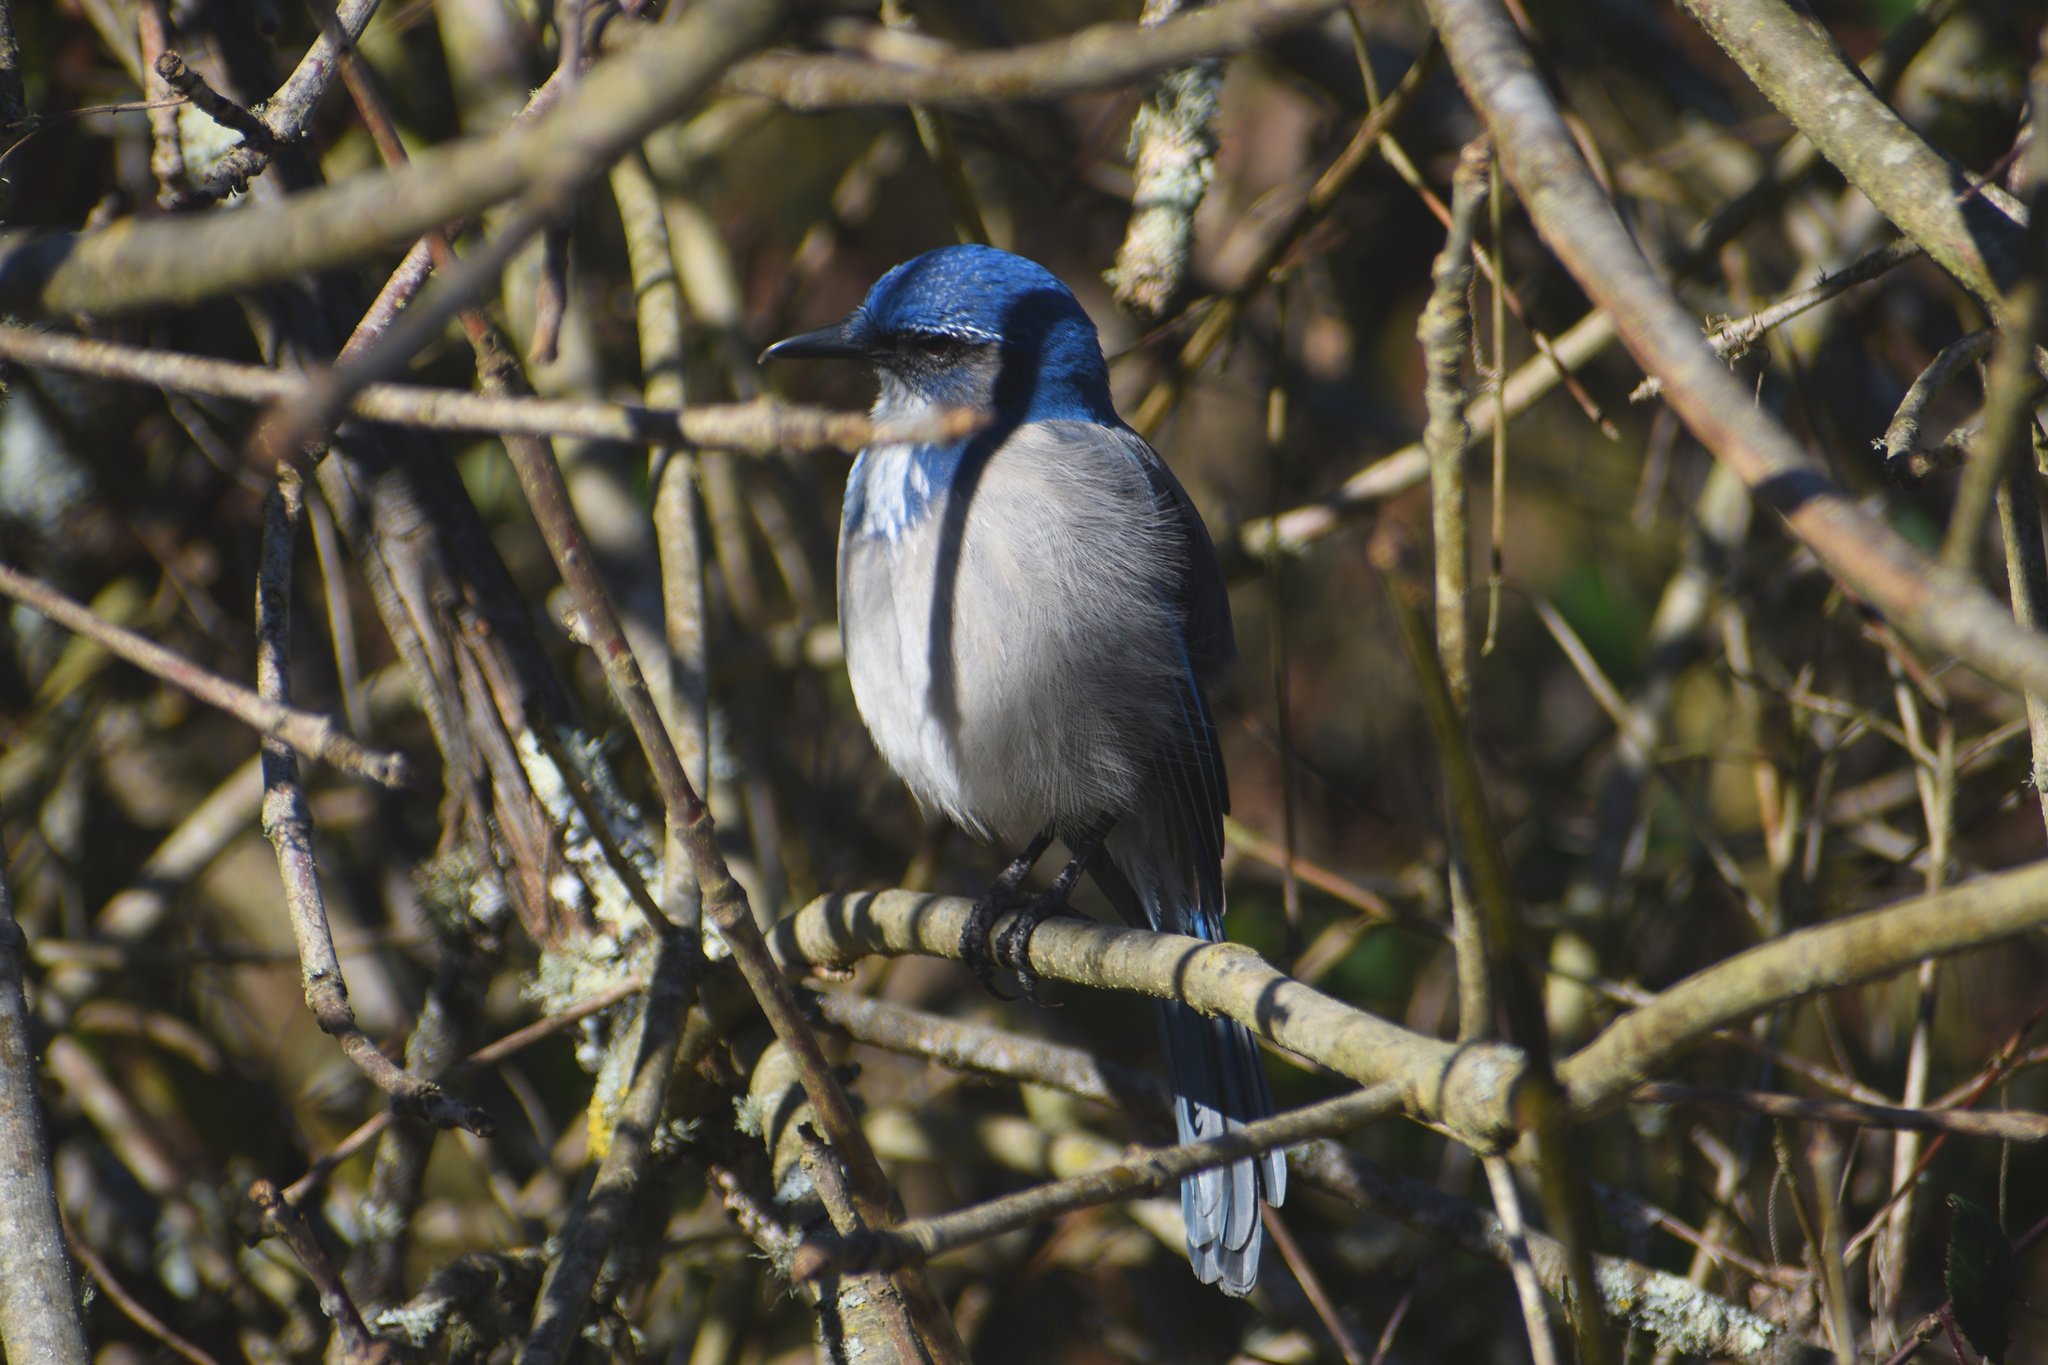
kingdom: Animalia
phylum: Chordata
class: Aves
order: Passeriformes
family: Corvidae
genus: Aphelocoma
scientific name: Aphelocoma californica
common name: California scrub-jay
